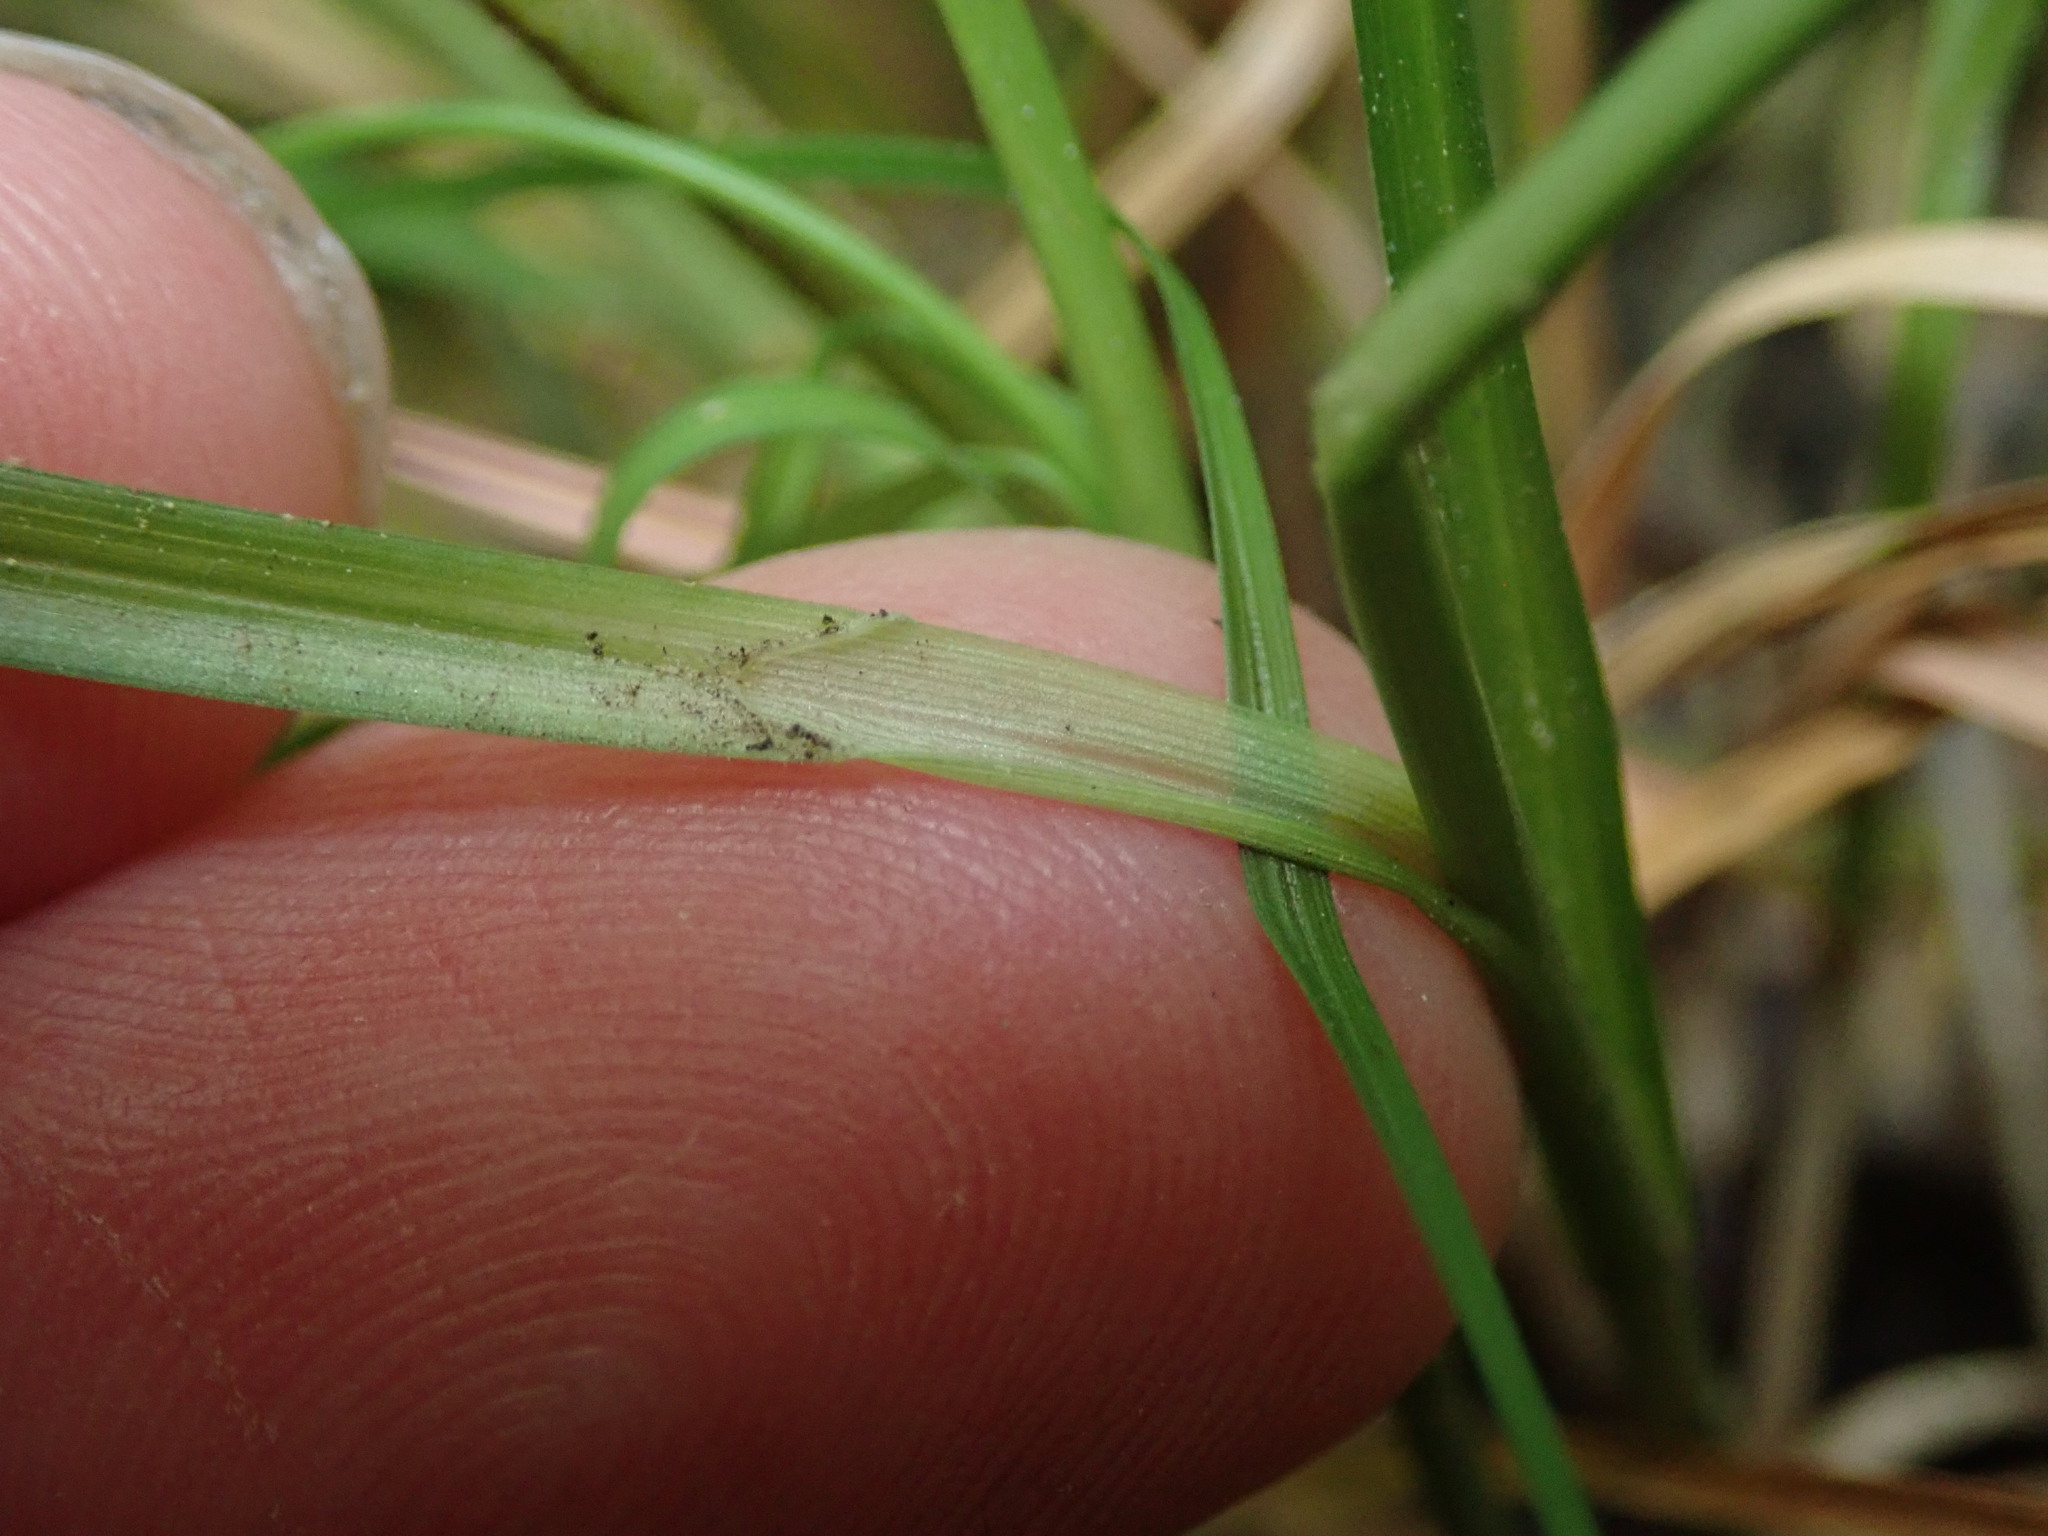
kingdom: Plantae
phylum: Tracheophyta
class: Liliopsida
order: Poales
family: Cyperaceae
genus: Carex
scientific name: Carex divulsa
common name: Grassland sedge
